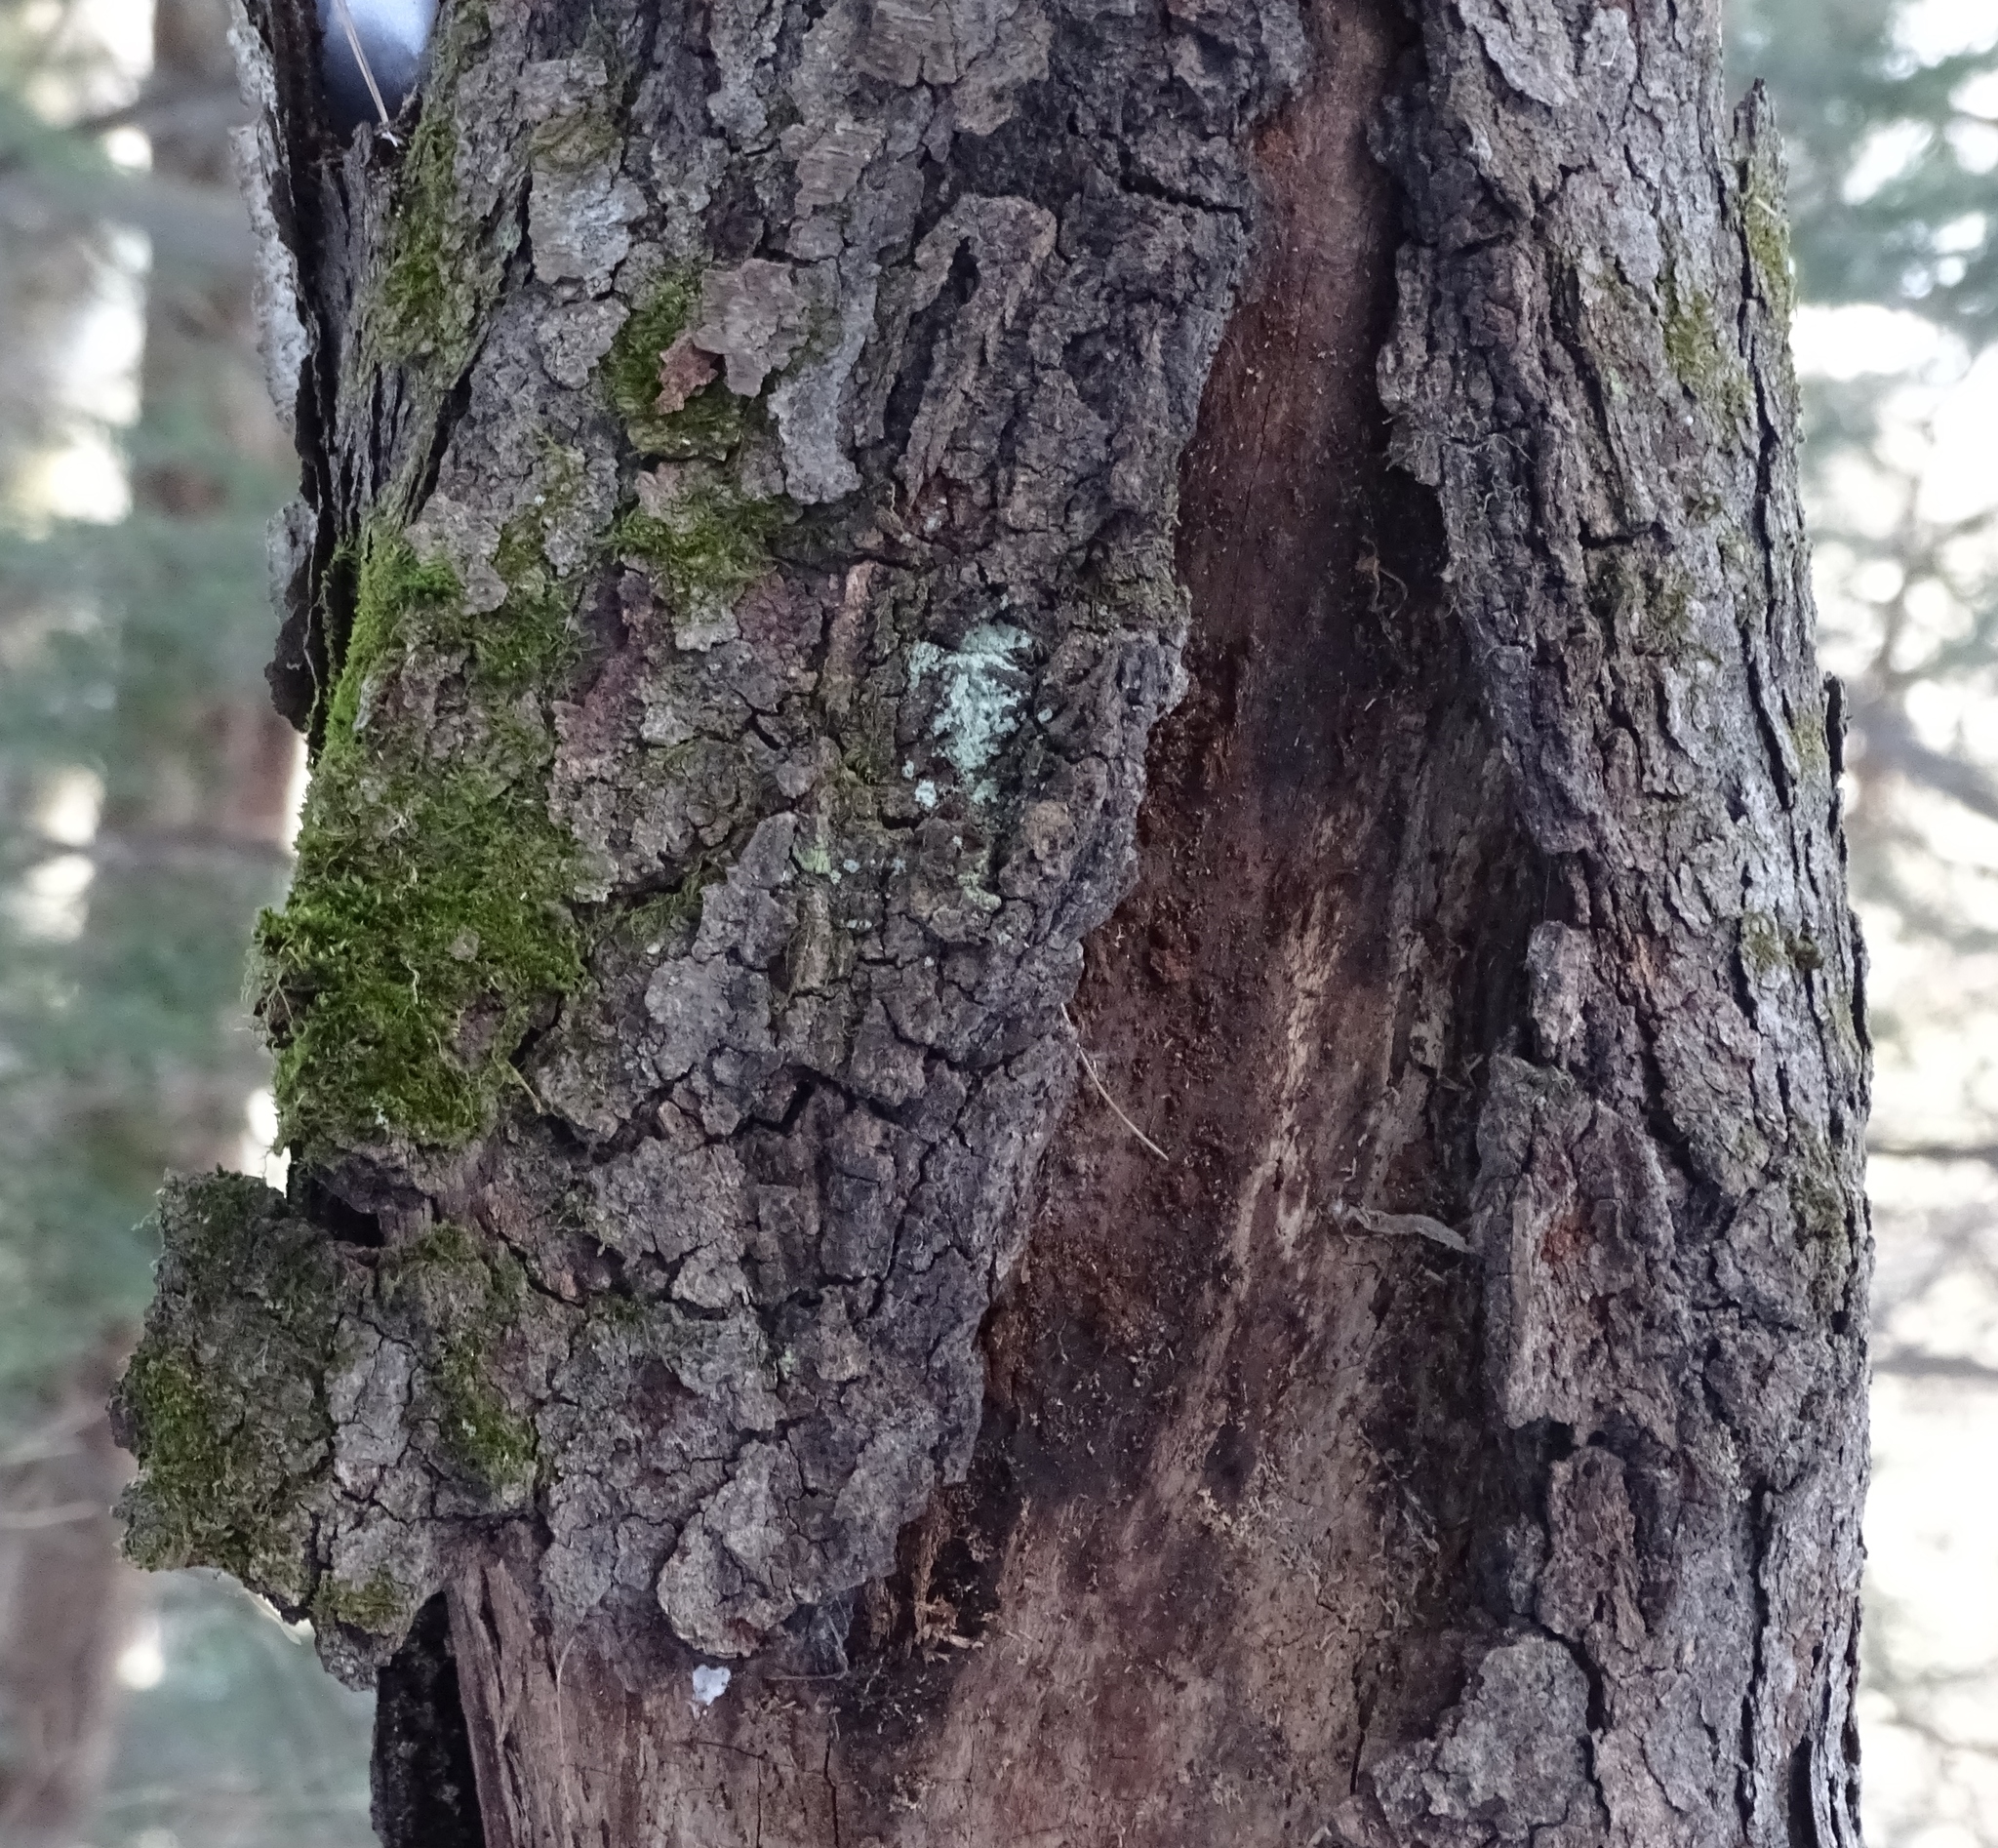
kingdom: Plantae
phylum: Tracheophyta
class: Magnoliopsida
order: Rosales
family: Rosaceae
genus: Prunus
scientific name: Prunus serotina
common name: Black cherry
